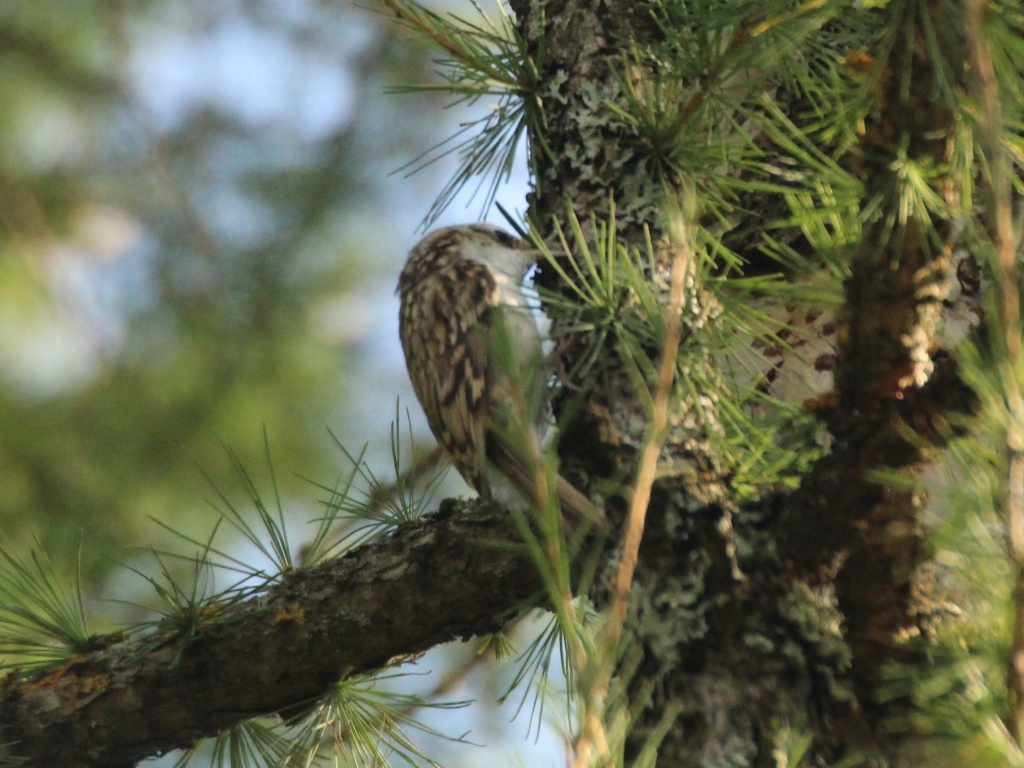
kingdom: Animalia
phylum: Chordata
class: Aves
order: Passeriformes
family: Certhiidae
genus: Certhia
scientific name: Certhia familiaris
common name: Eurasian treecreeper
